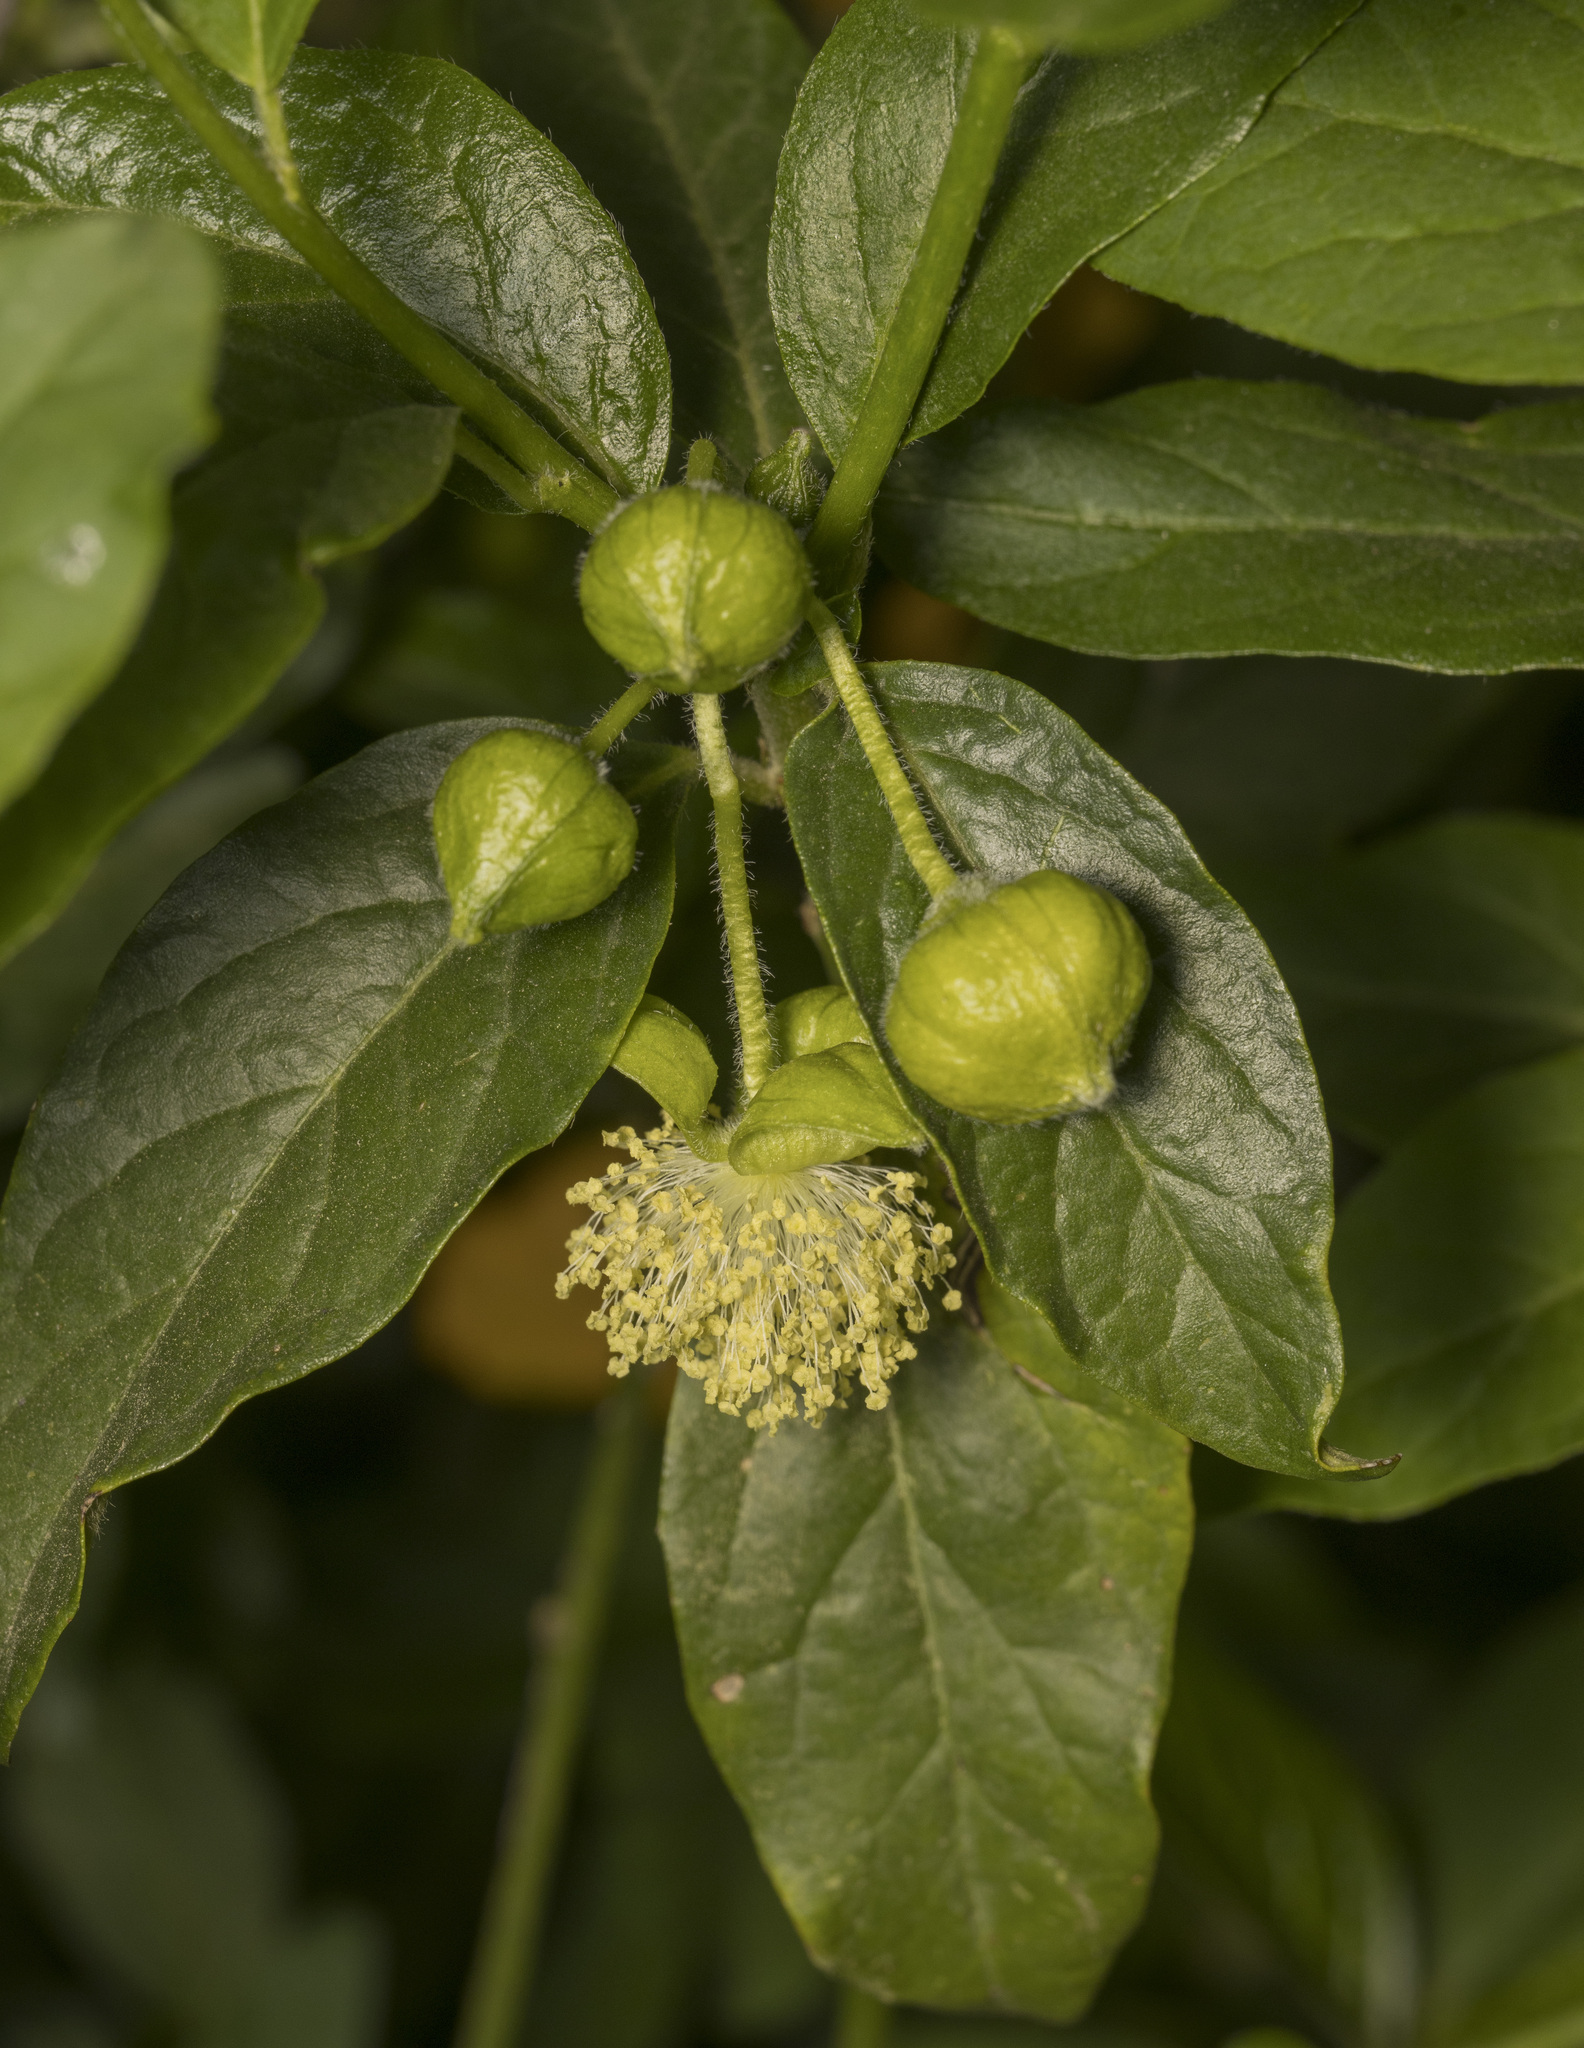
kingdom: Plantae
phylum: Tracheophyta
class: Magnoliopsida
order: Malpighiales
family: Euphorbiaceae
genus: Avellanita
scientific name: Avellanita bustillosii
